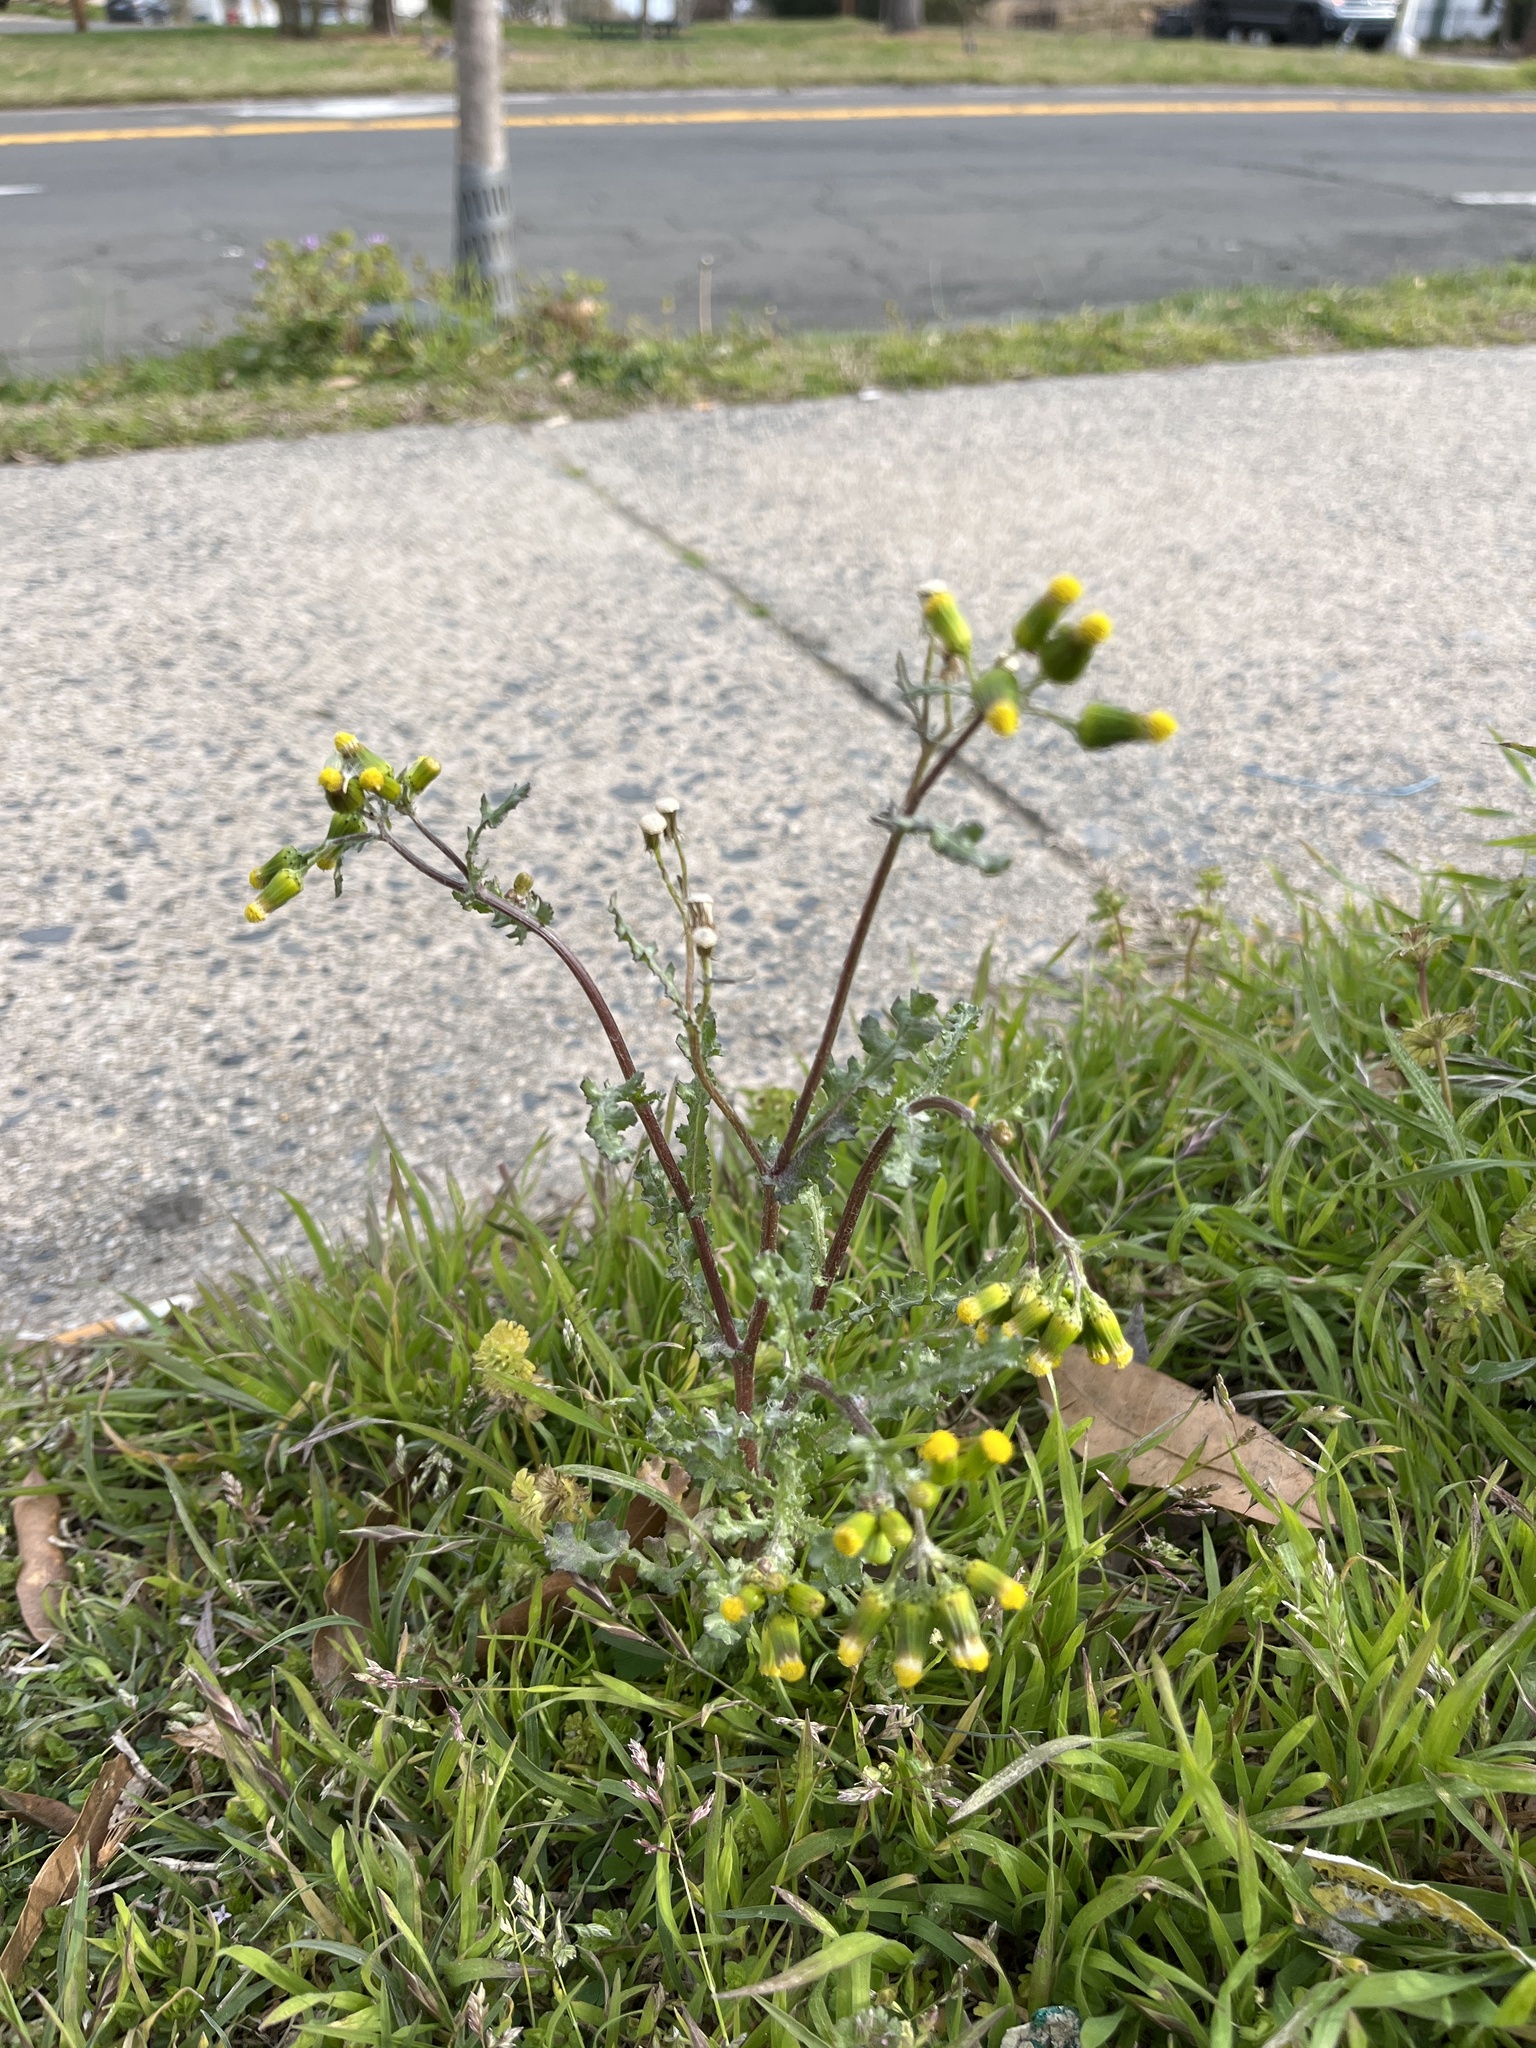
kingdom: Plantae
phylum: Tracheophyta
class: Magnoliopsida
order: Asterales
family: Asteraceae
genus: Senecio
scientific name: Senecio vulgaris
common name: Old-man-in-the-spring
